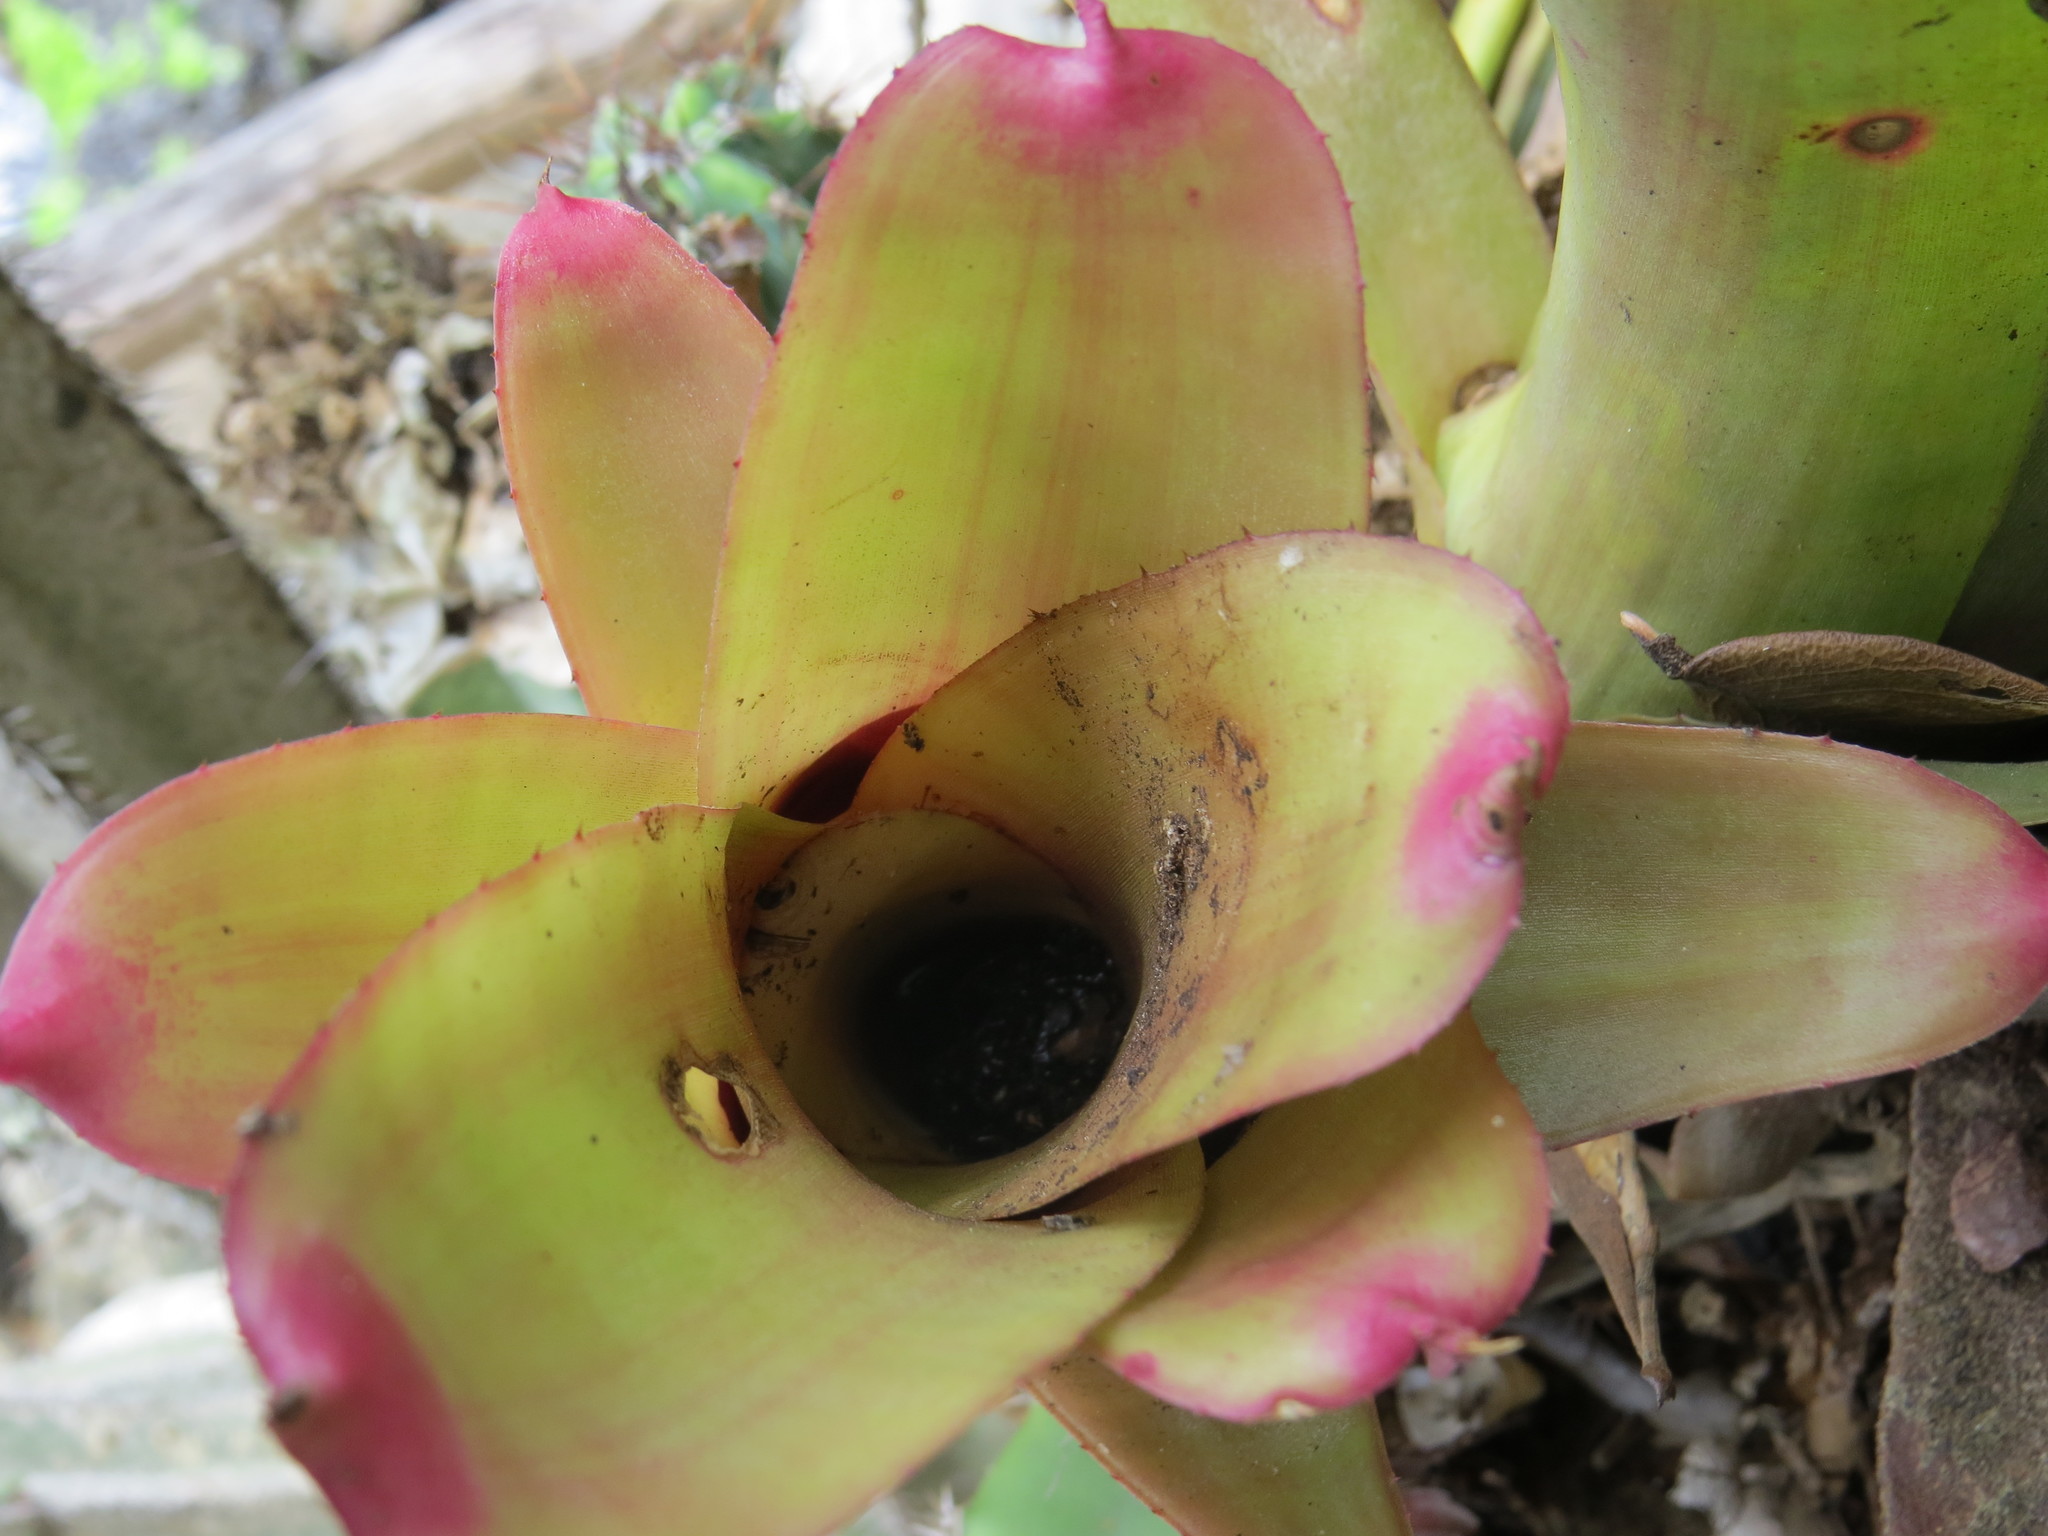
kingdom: Plantae
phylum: Tracheophyta
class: Liliopsida
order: Poales
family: Bromeliaceae
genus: Neoregelia
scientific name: Neoregelia cruenta
